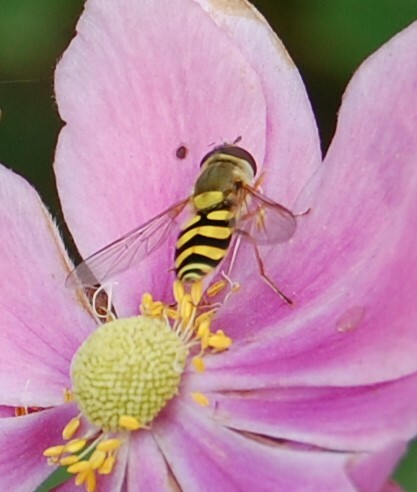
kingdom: Animalia
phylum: Arthropoda
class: Insecta
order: Diptera
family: Syrphidae
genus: Syrphus
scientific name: Syrphus
